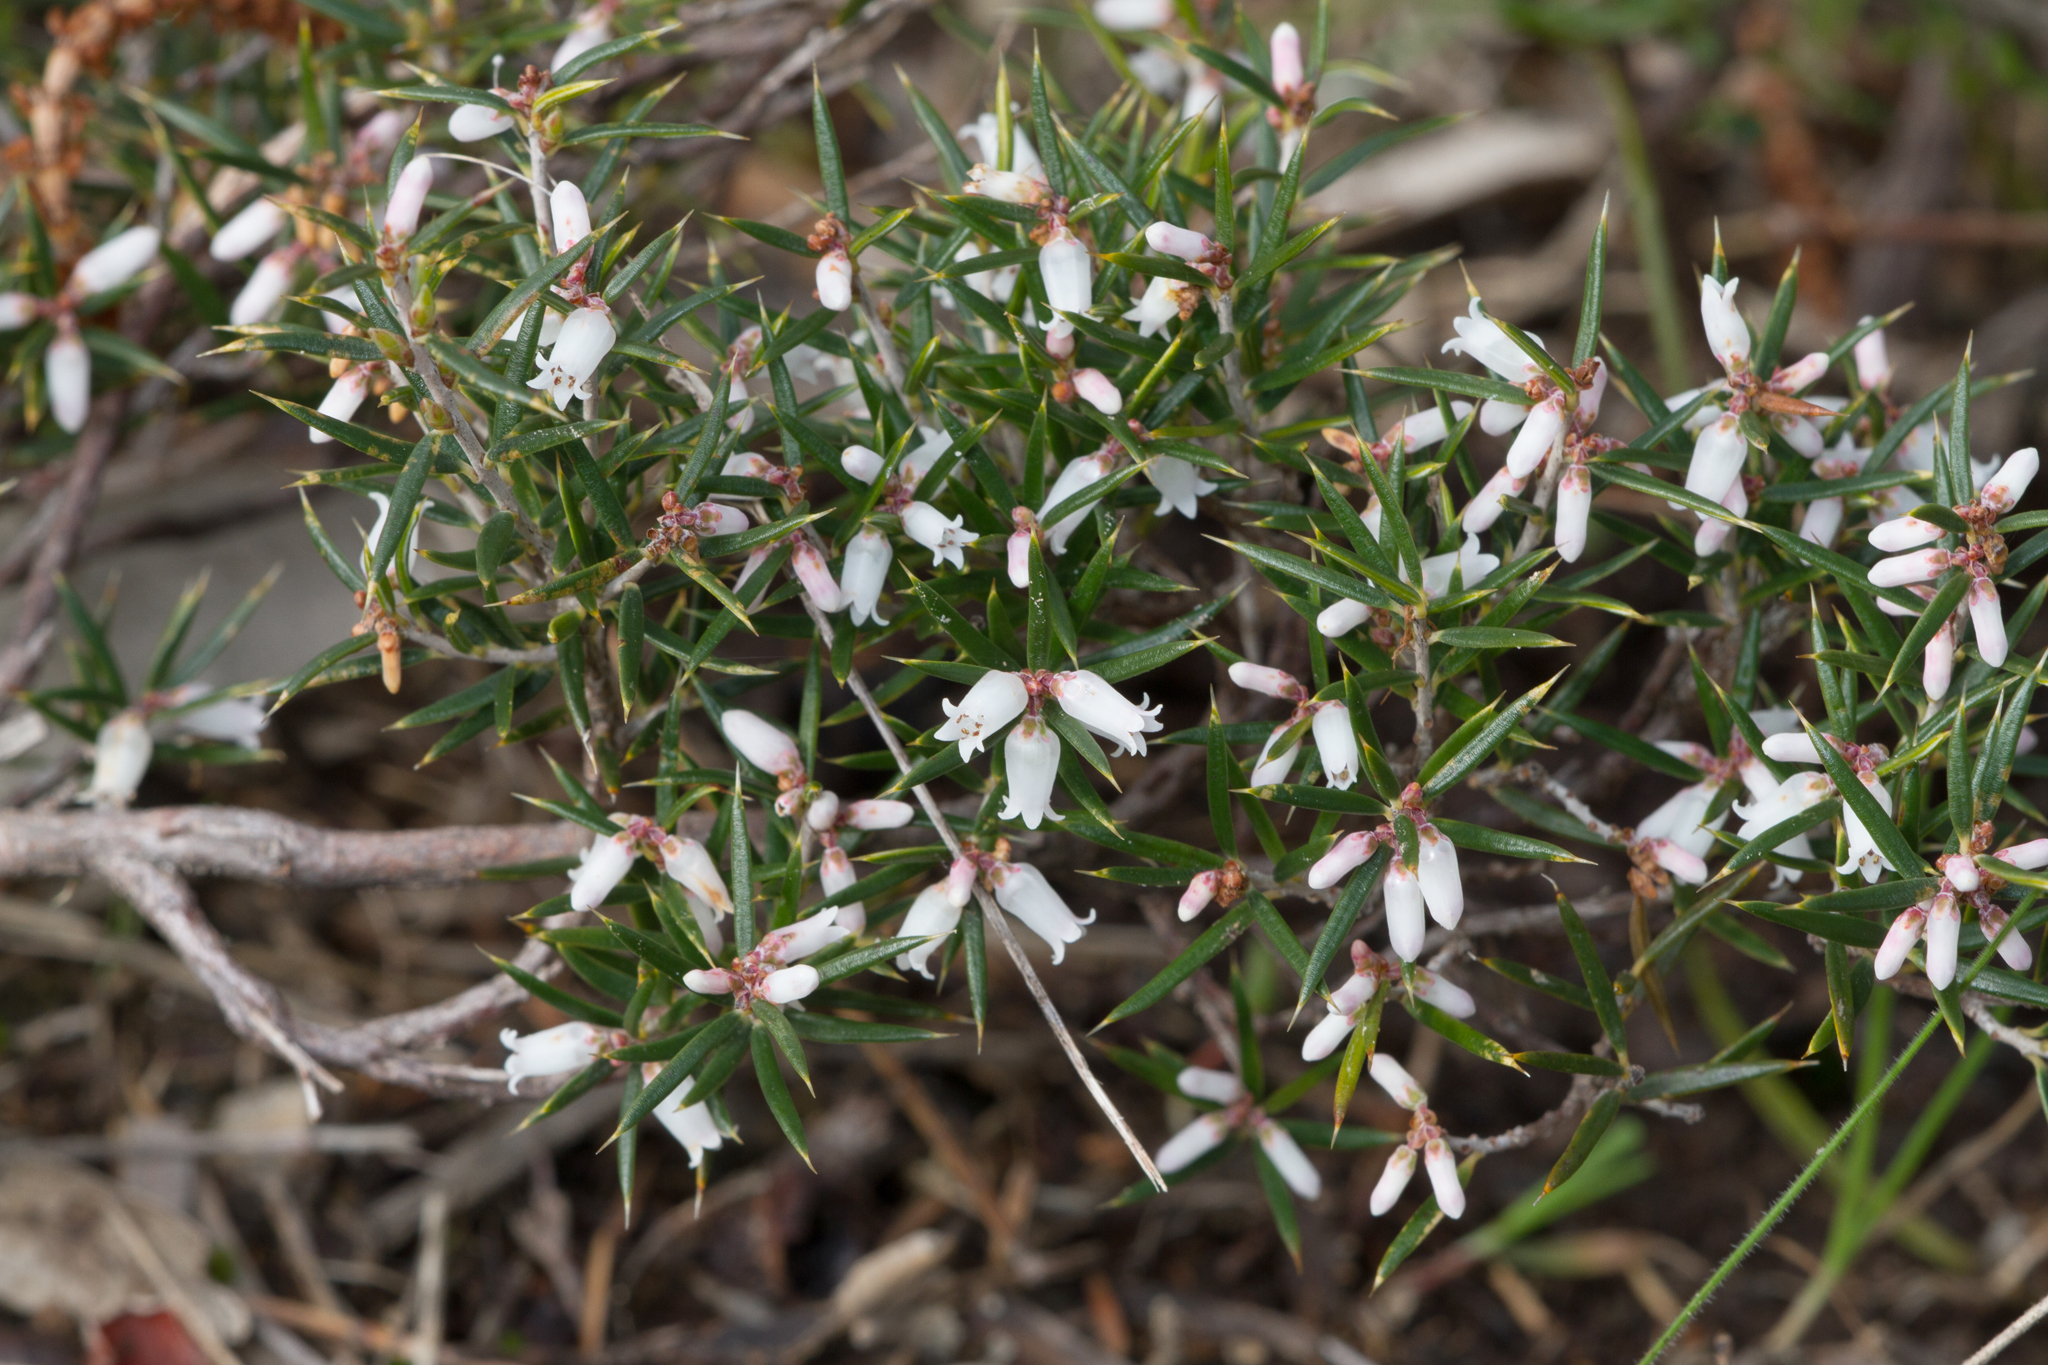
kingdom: Plantae
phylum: Tracheophyta
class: Magnoliopsida
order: Ericales
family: Ericaceae
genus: Lissanthe
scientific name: Lissanthe strigosa
